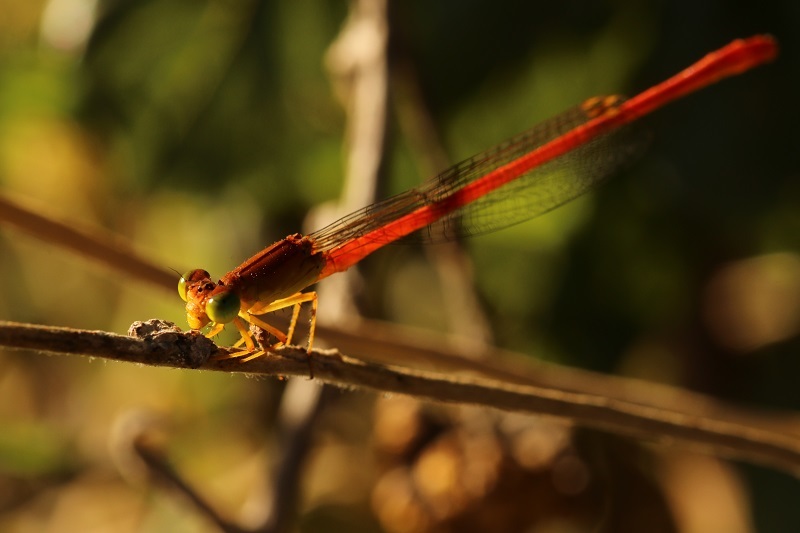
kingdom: Animalia
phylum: Arthropoda
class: Insecta
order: Odonata
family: Coenagrionidae
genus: Ceriagrion
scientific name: Ceriagrion glabrum
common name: Common pond damsel
